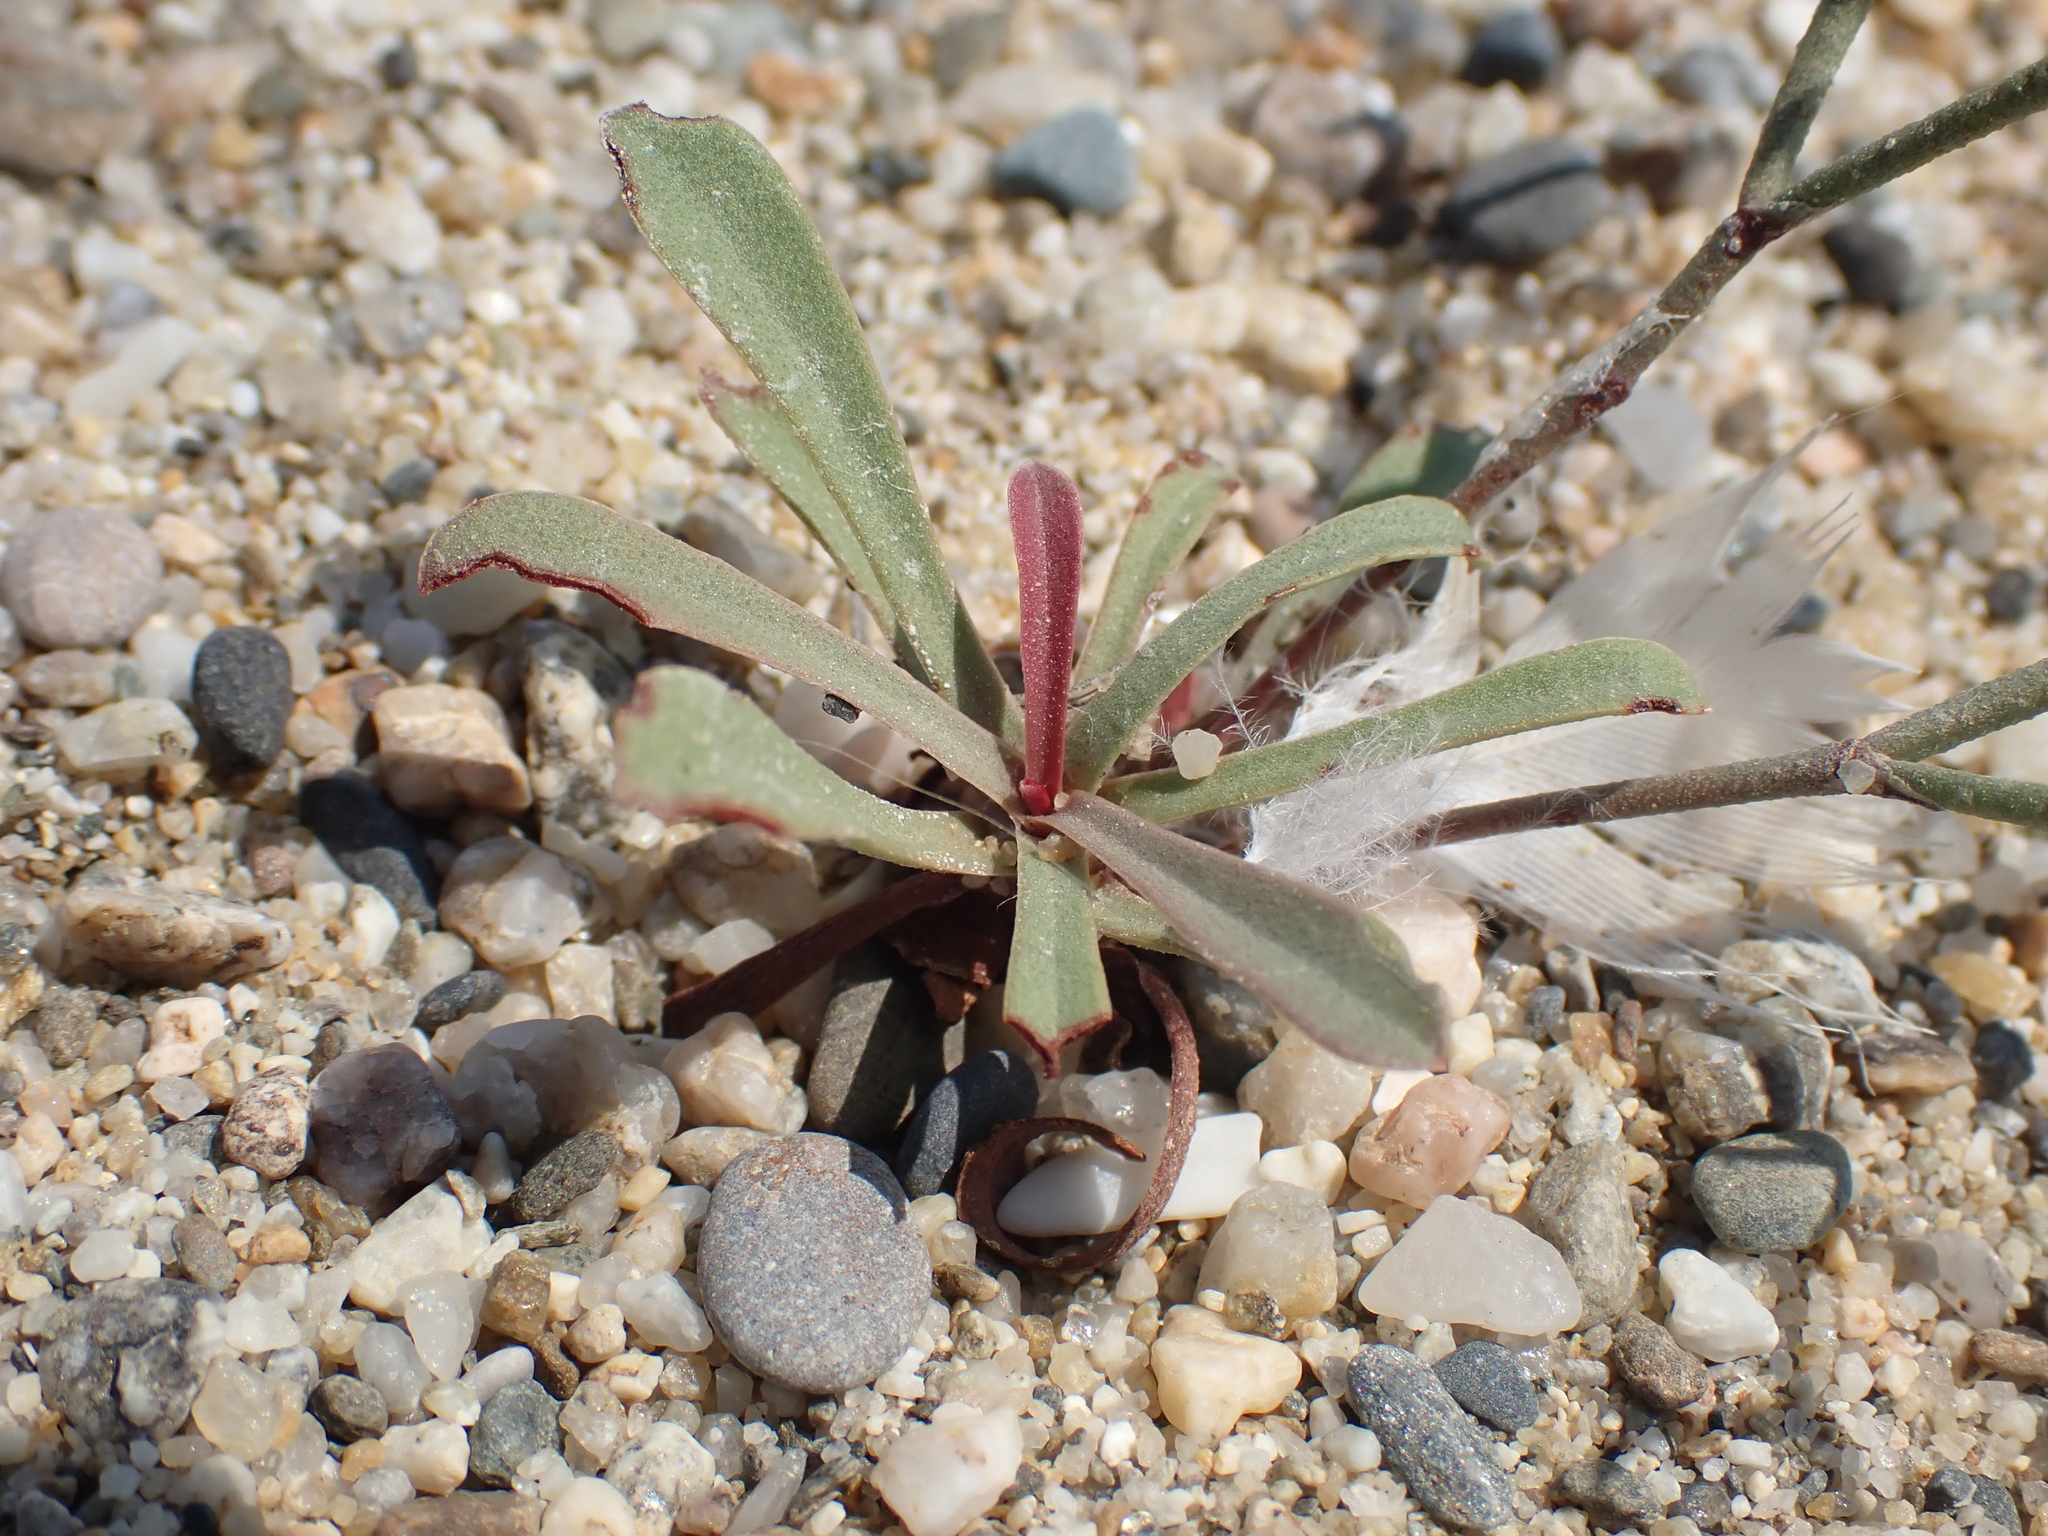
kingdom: Plantae
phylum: Tracheophyta
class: Magnoliopsida
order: Caryophyllales
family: Plumbaginaceae
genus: Limonium
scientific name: Limonium virgatum
